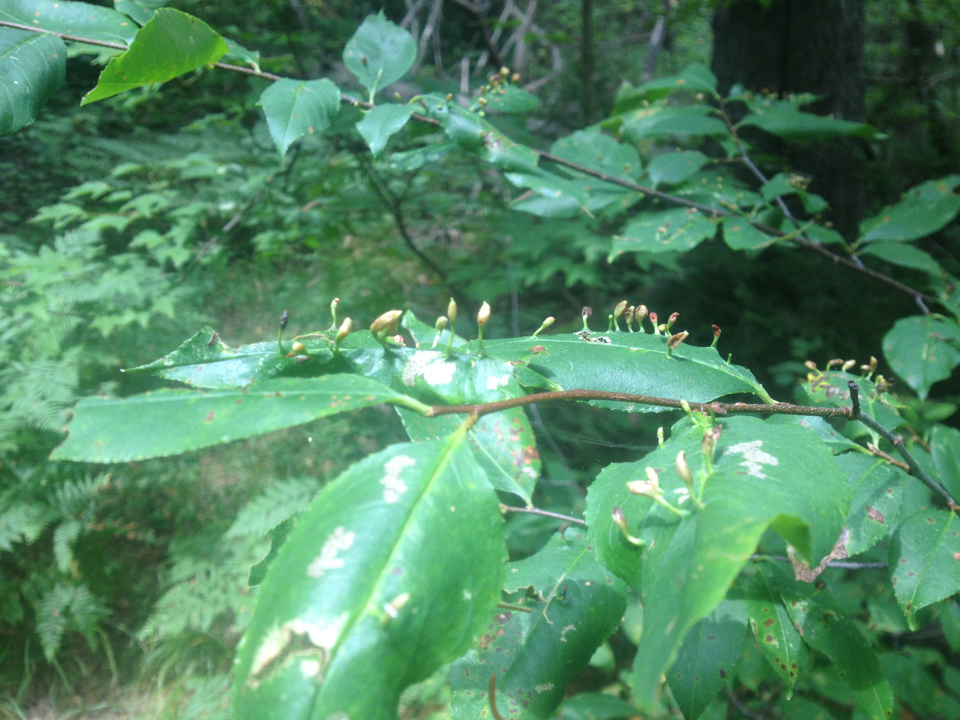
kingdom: Animalia
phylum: Arthropoda
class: Arachnida
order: Trombidiformes
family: Eriophyidae
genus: Eriophyes
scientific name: Eriophyes
